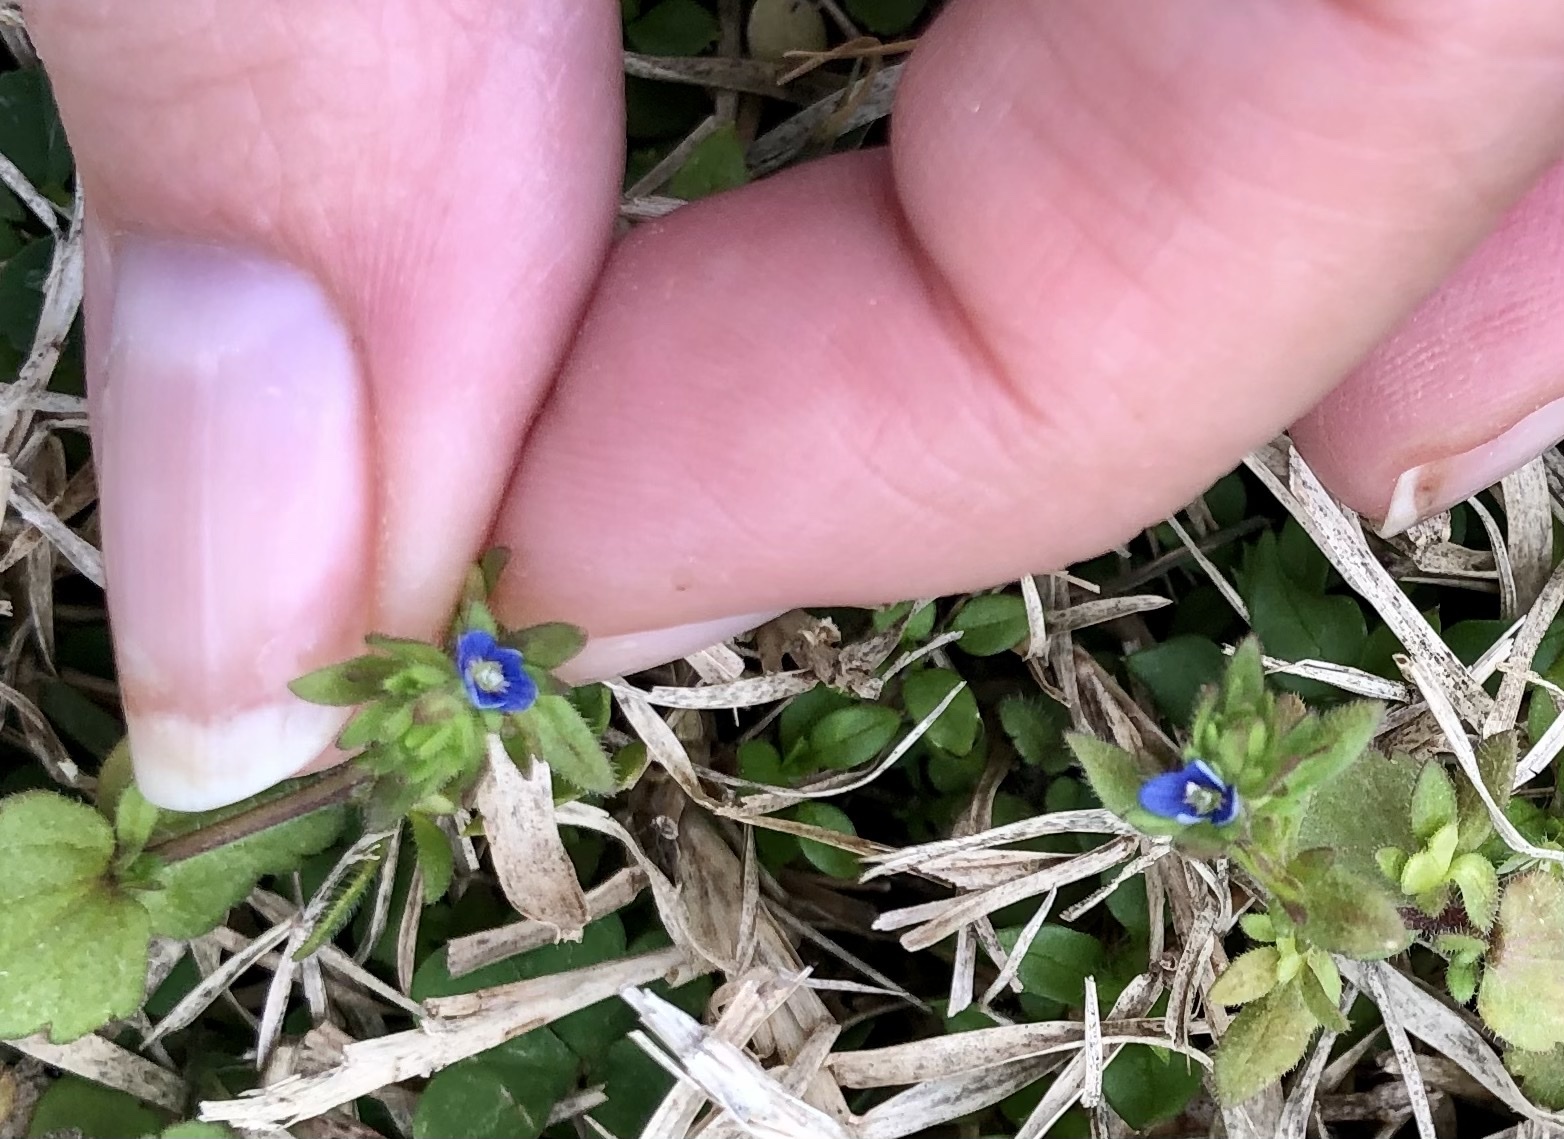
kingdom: Plantae
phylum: Tracheophyta
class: Magnoliopsida
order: Lamiales
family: Plantaginaceae
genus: Veronica
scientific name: Veronica arvensis
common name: Corn speedwell
